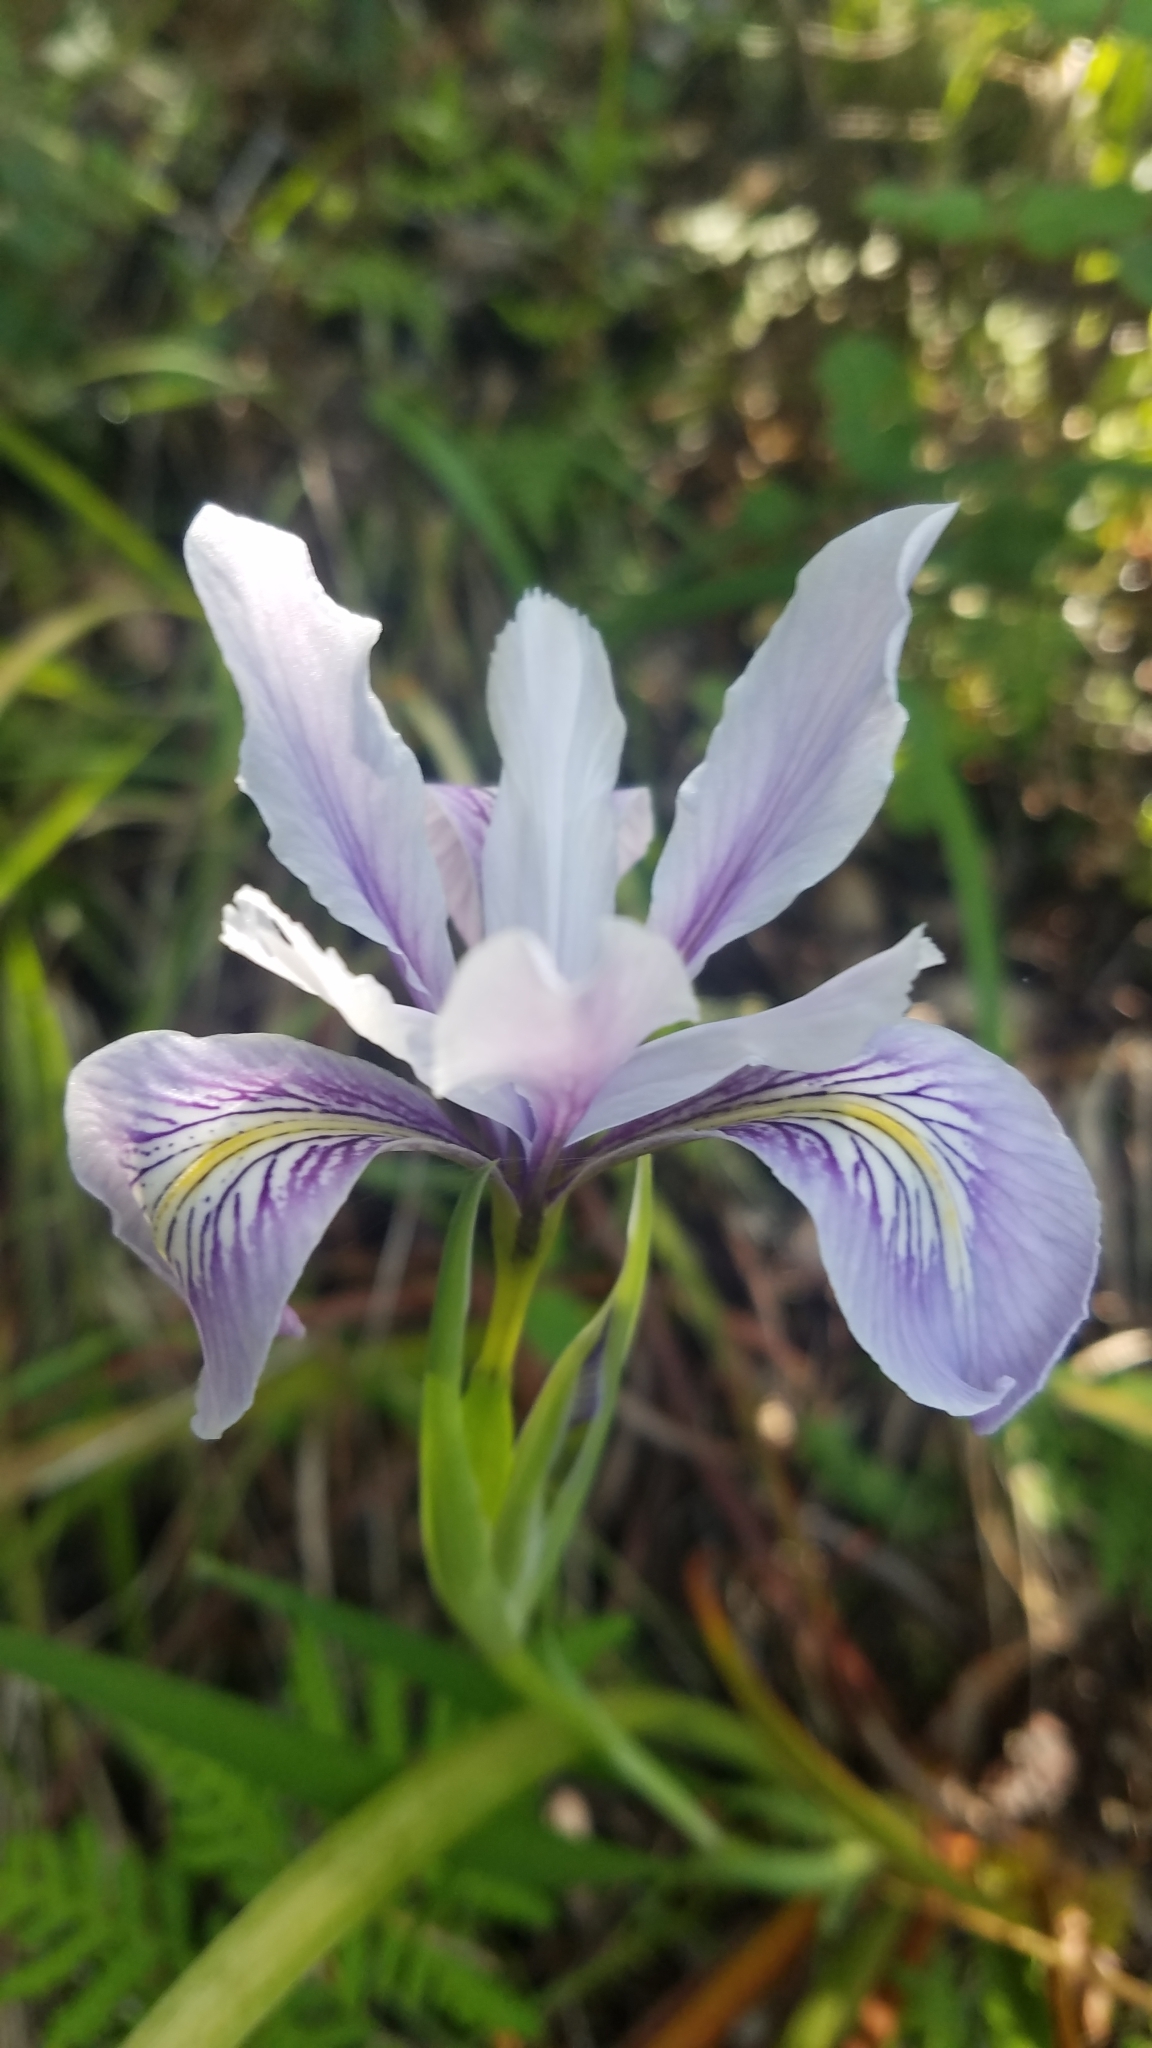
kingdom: Plantae
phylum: Tracheophyta
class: Liliopsida
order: Asparagales
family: Iridaceae
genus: Iris
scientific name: Iris douglasiana
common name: Marin iris
